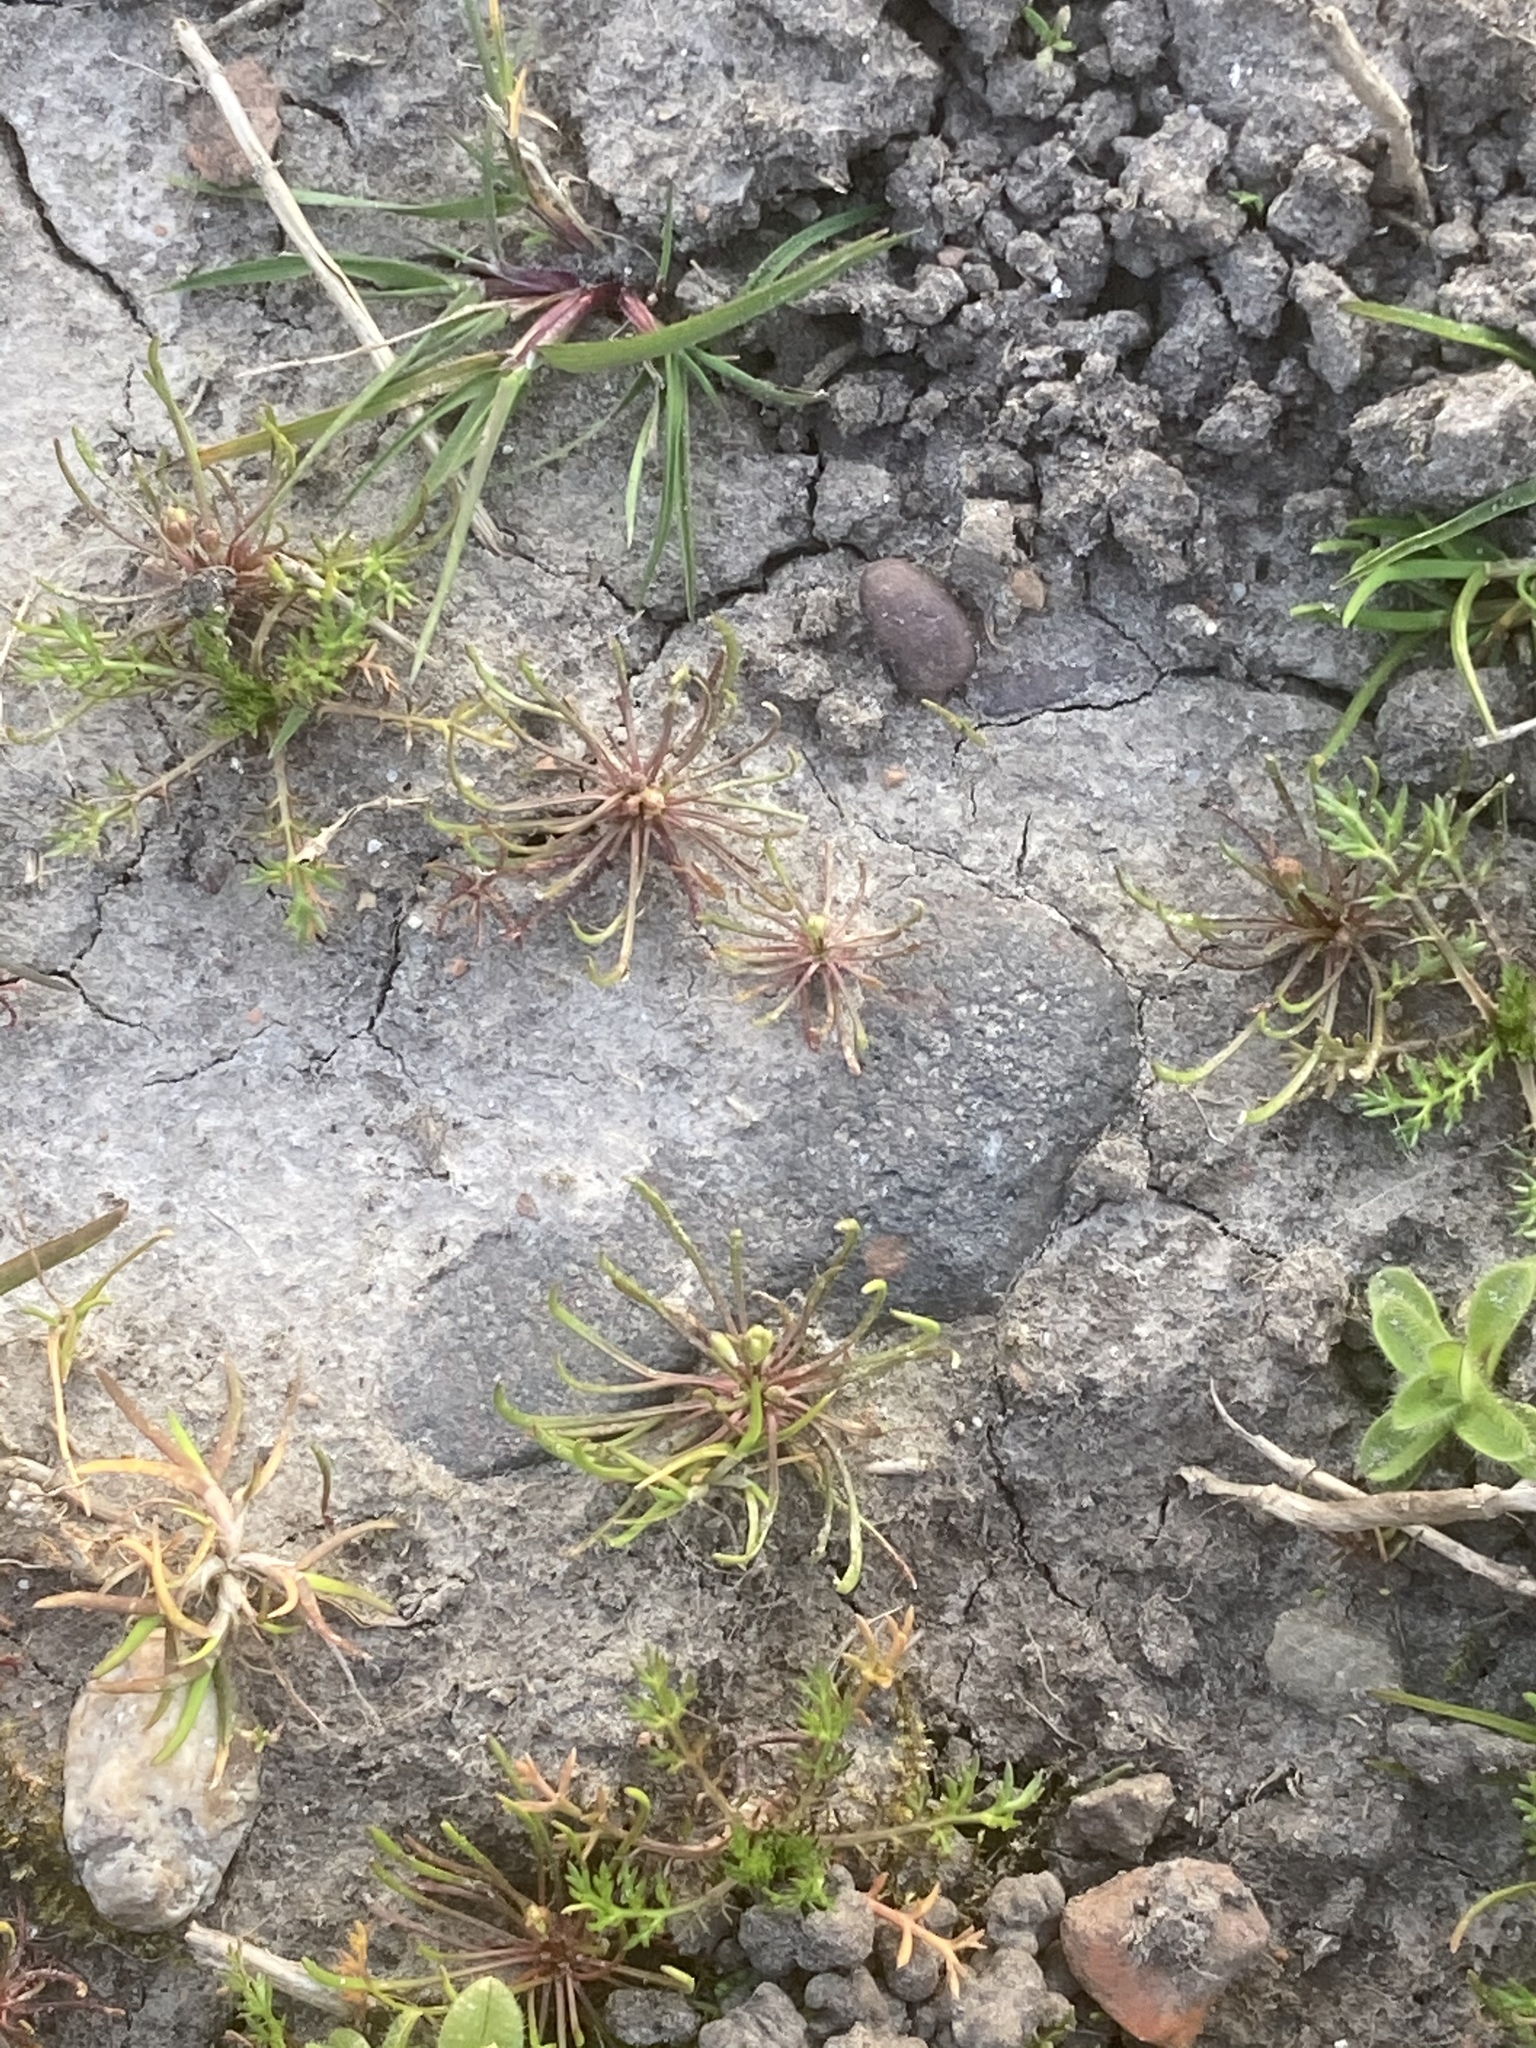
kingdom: Plantae
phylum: Tracheophyta
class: Magnoliopsida
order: Ranunculales
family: Ranunculaceae
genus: Myosurus
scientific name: Myosurus minimus
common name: Mousetail
